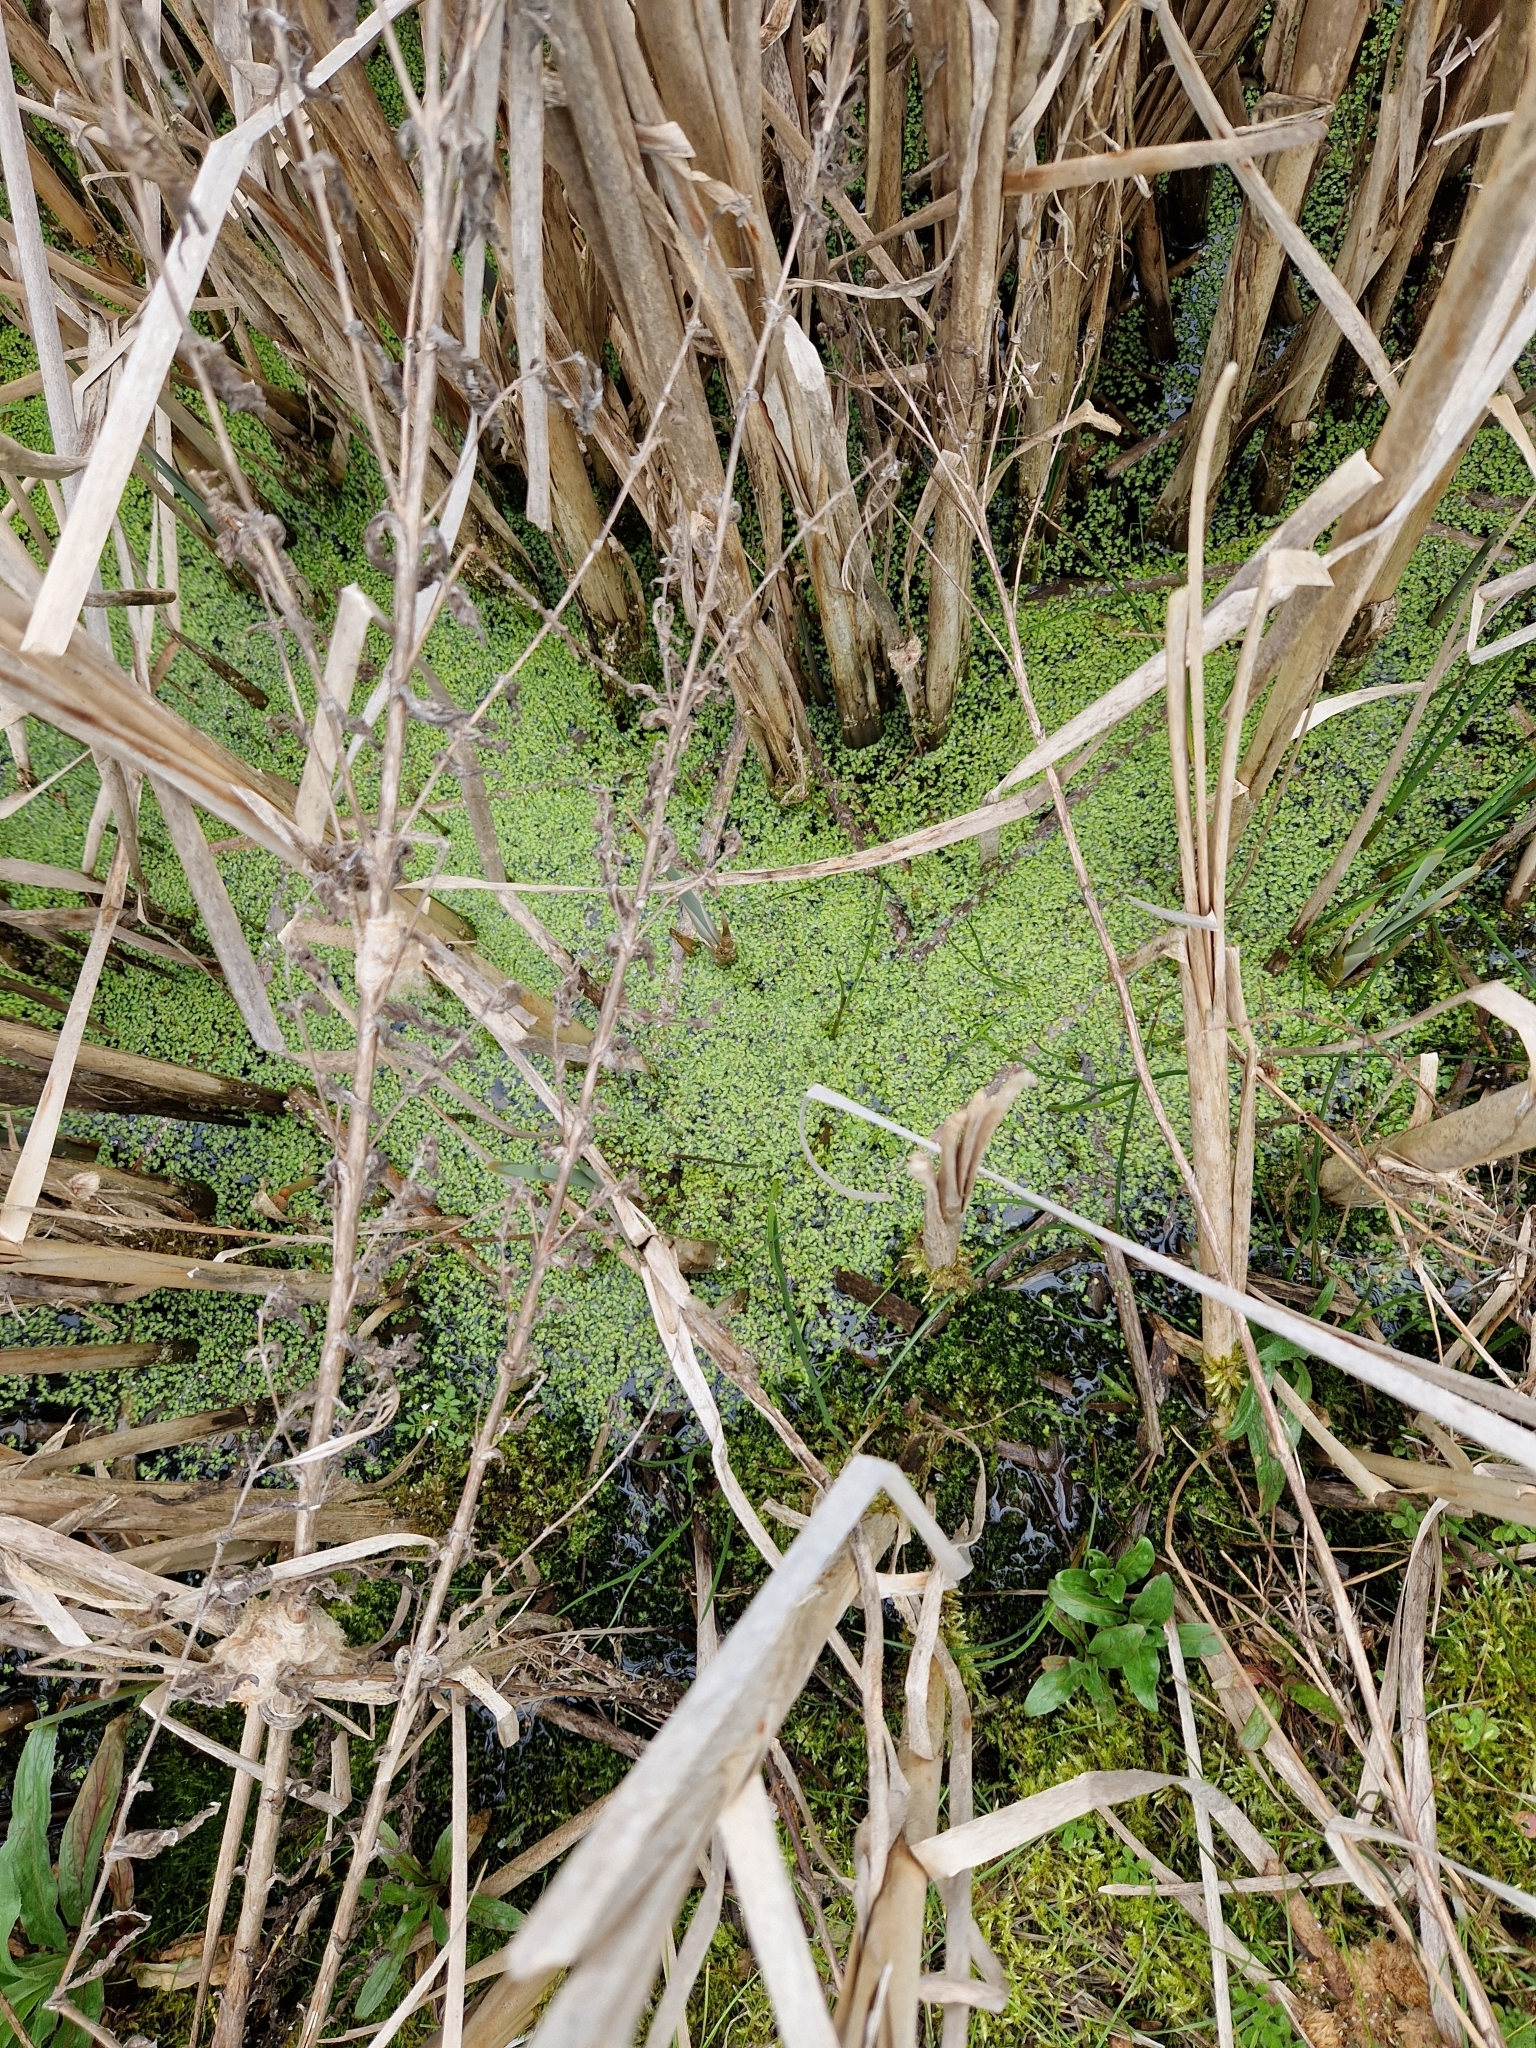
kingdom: Plantae
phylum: Tracheophyta
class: Liliopsida
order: Alismatales
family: Araceae
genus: Lemna
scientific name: Lemna minor
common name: Common duckweed
